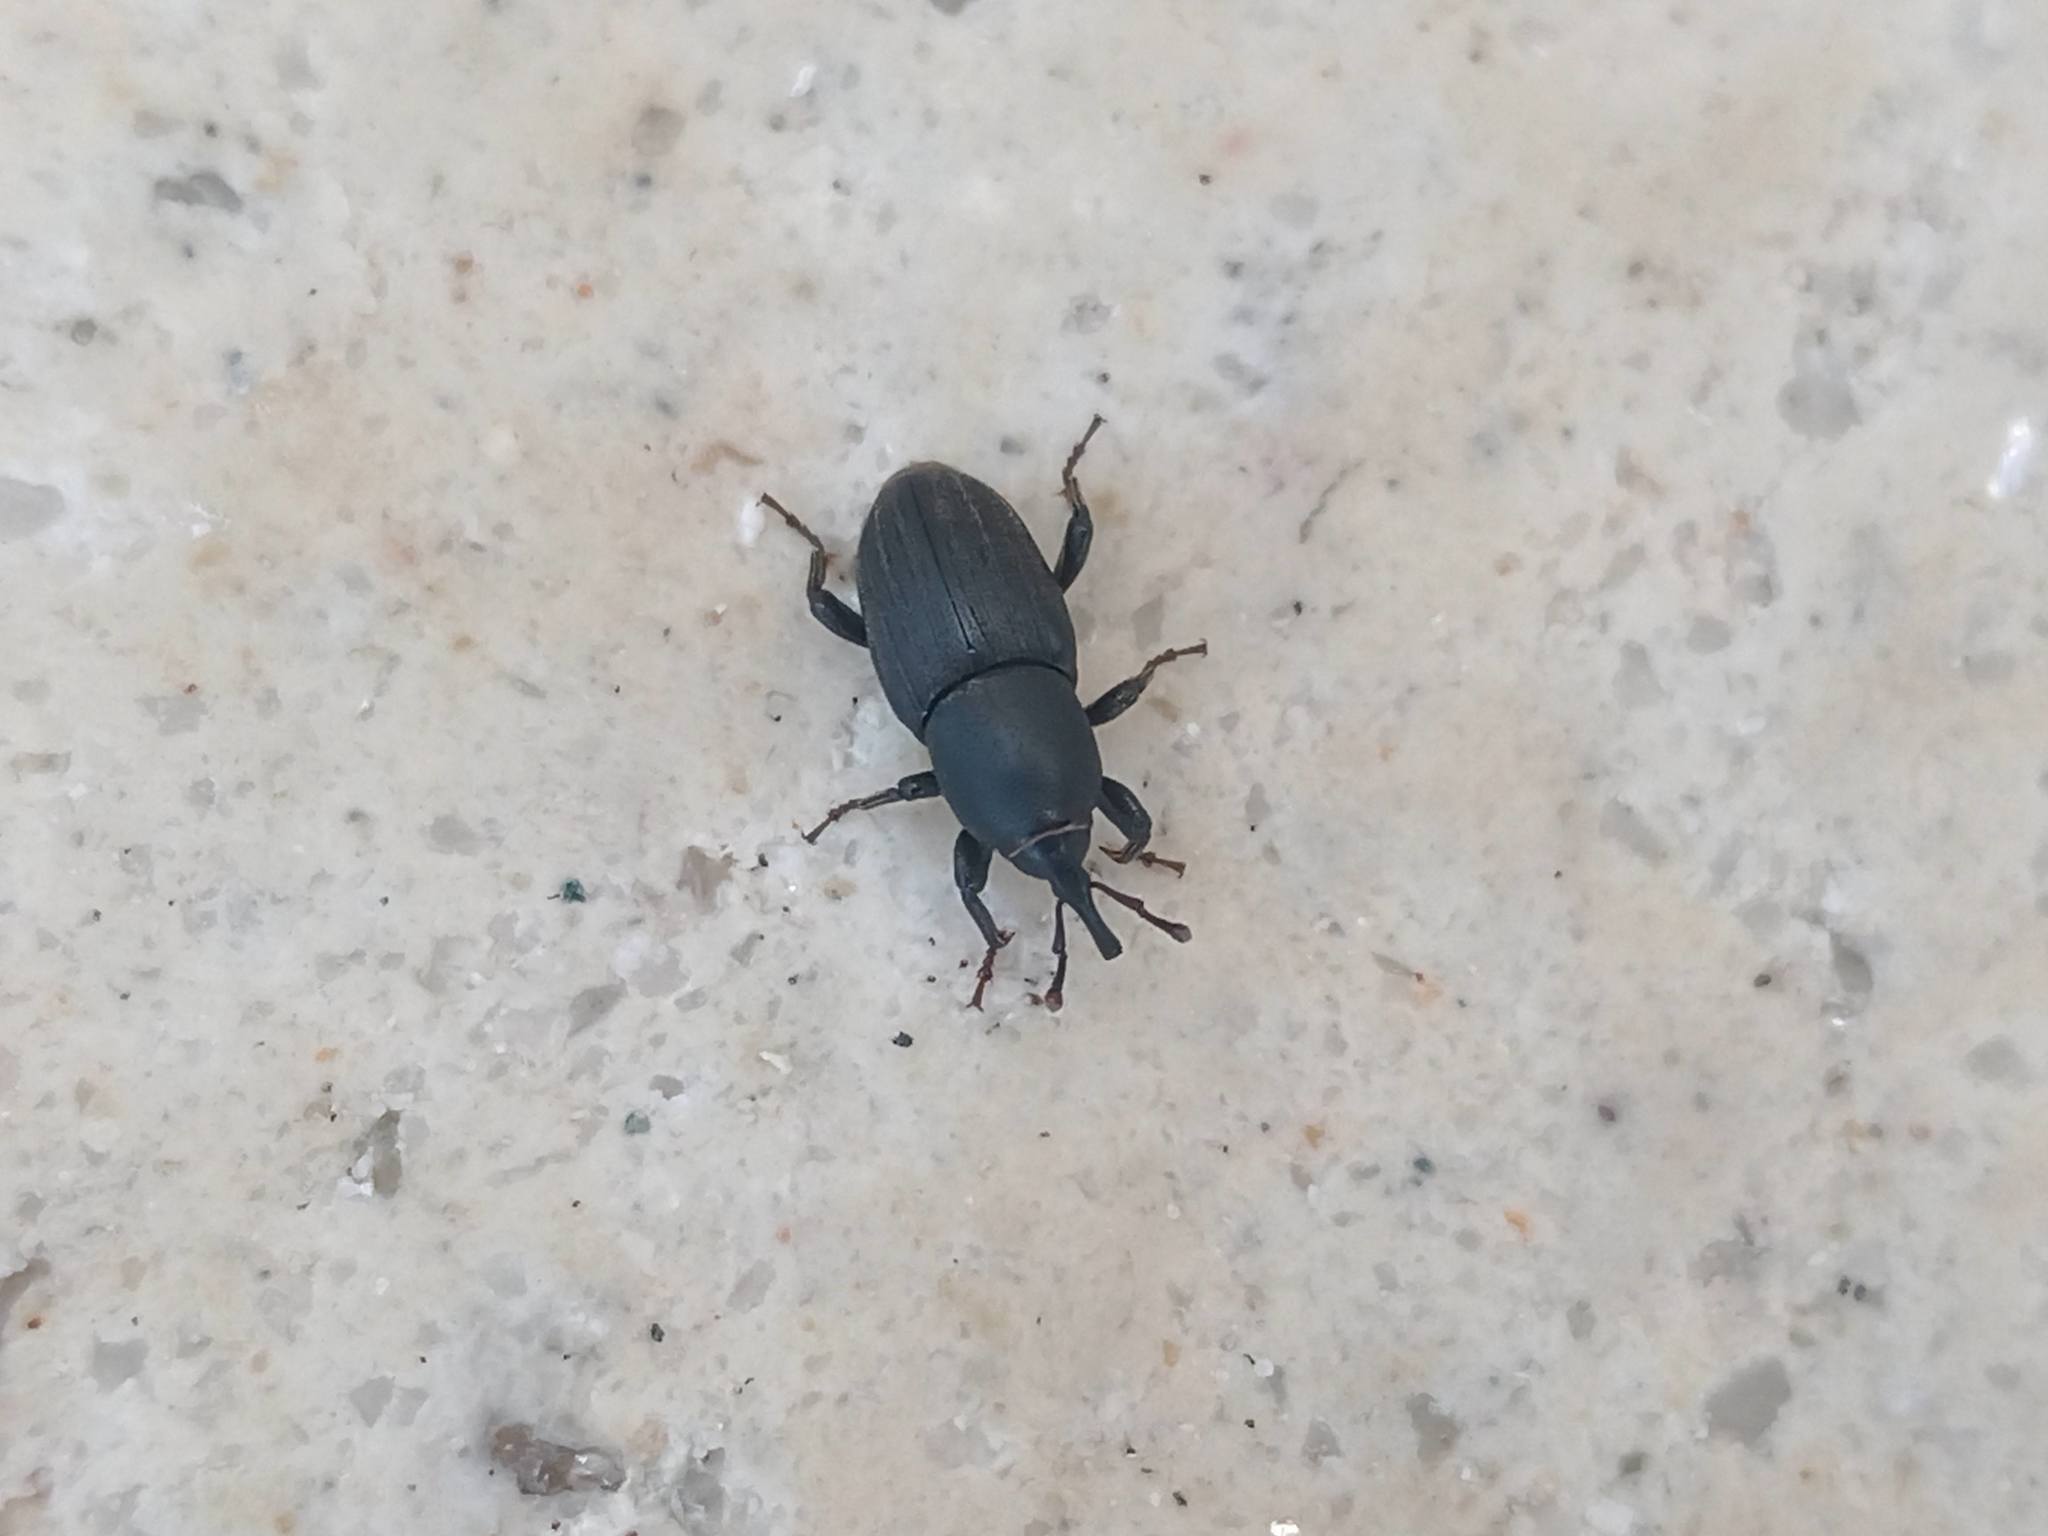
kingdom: Animalia
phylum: Arthropoda
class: Insecta
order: Coleoptera
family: Dryophthoridae
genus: Sphenophorus
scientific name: Sphenophorus striatopunctatus
